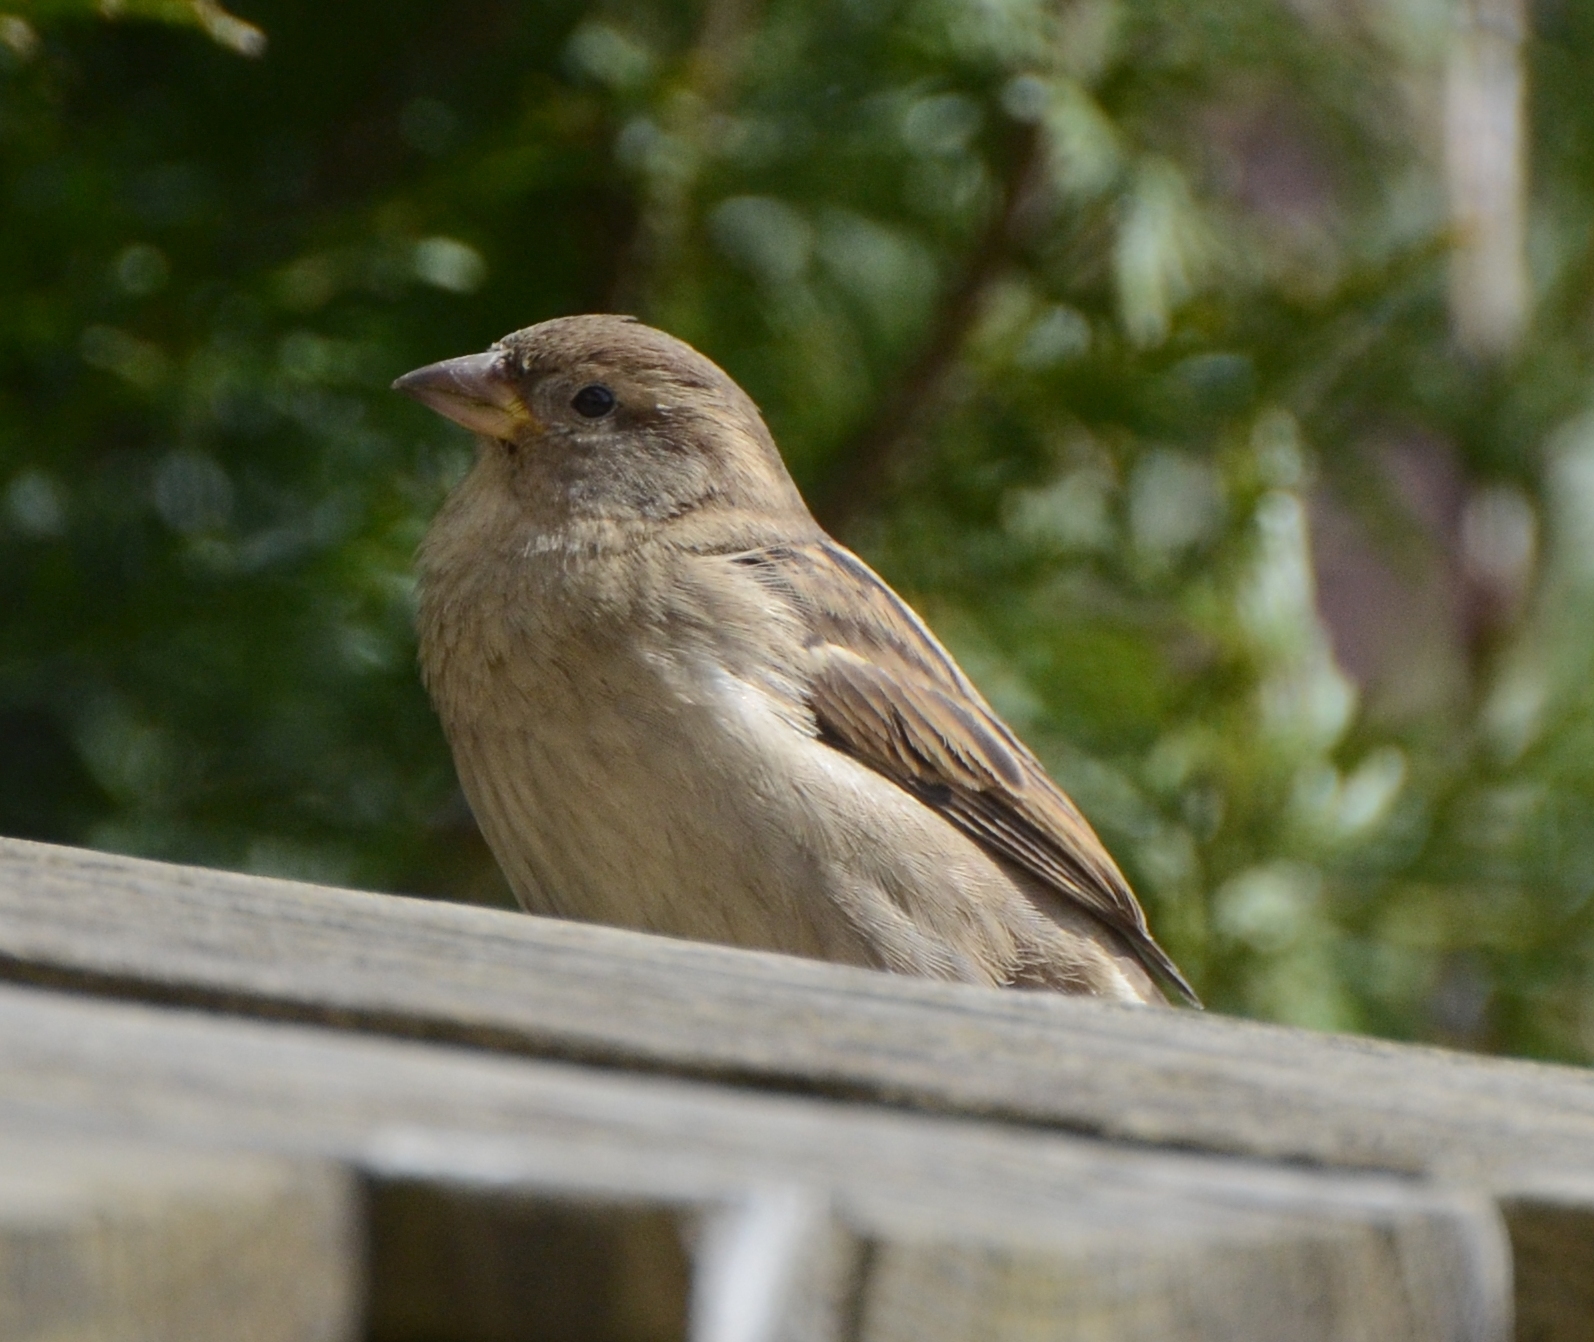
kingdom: Animalia
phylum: Chordata
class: Aves
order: Passeriformes
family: Passeridae
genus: Passer
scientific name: Passer domesticus
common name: House sparrow
